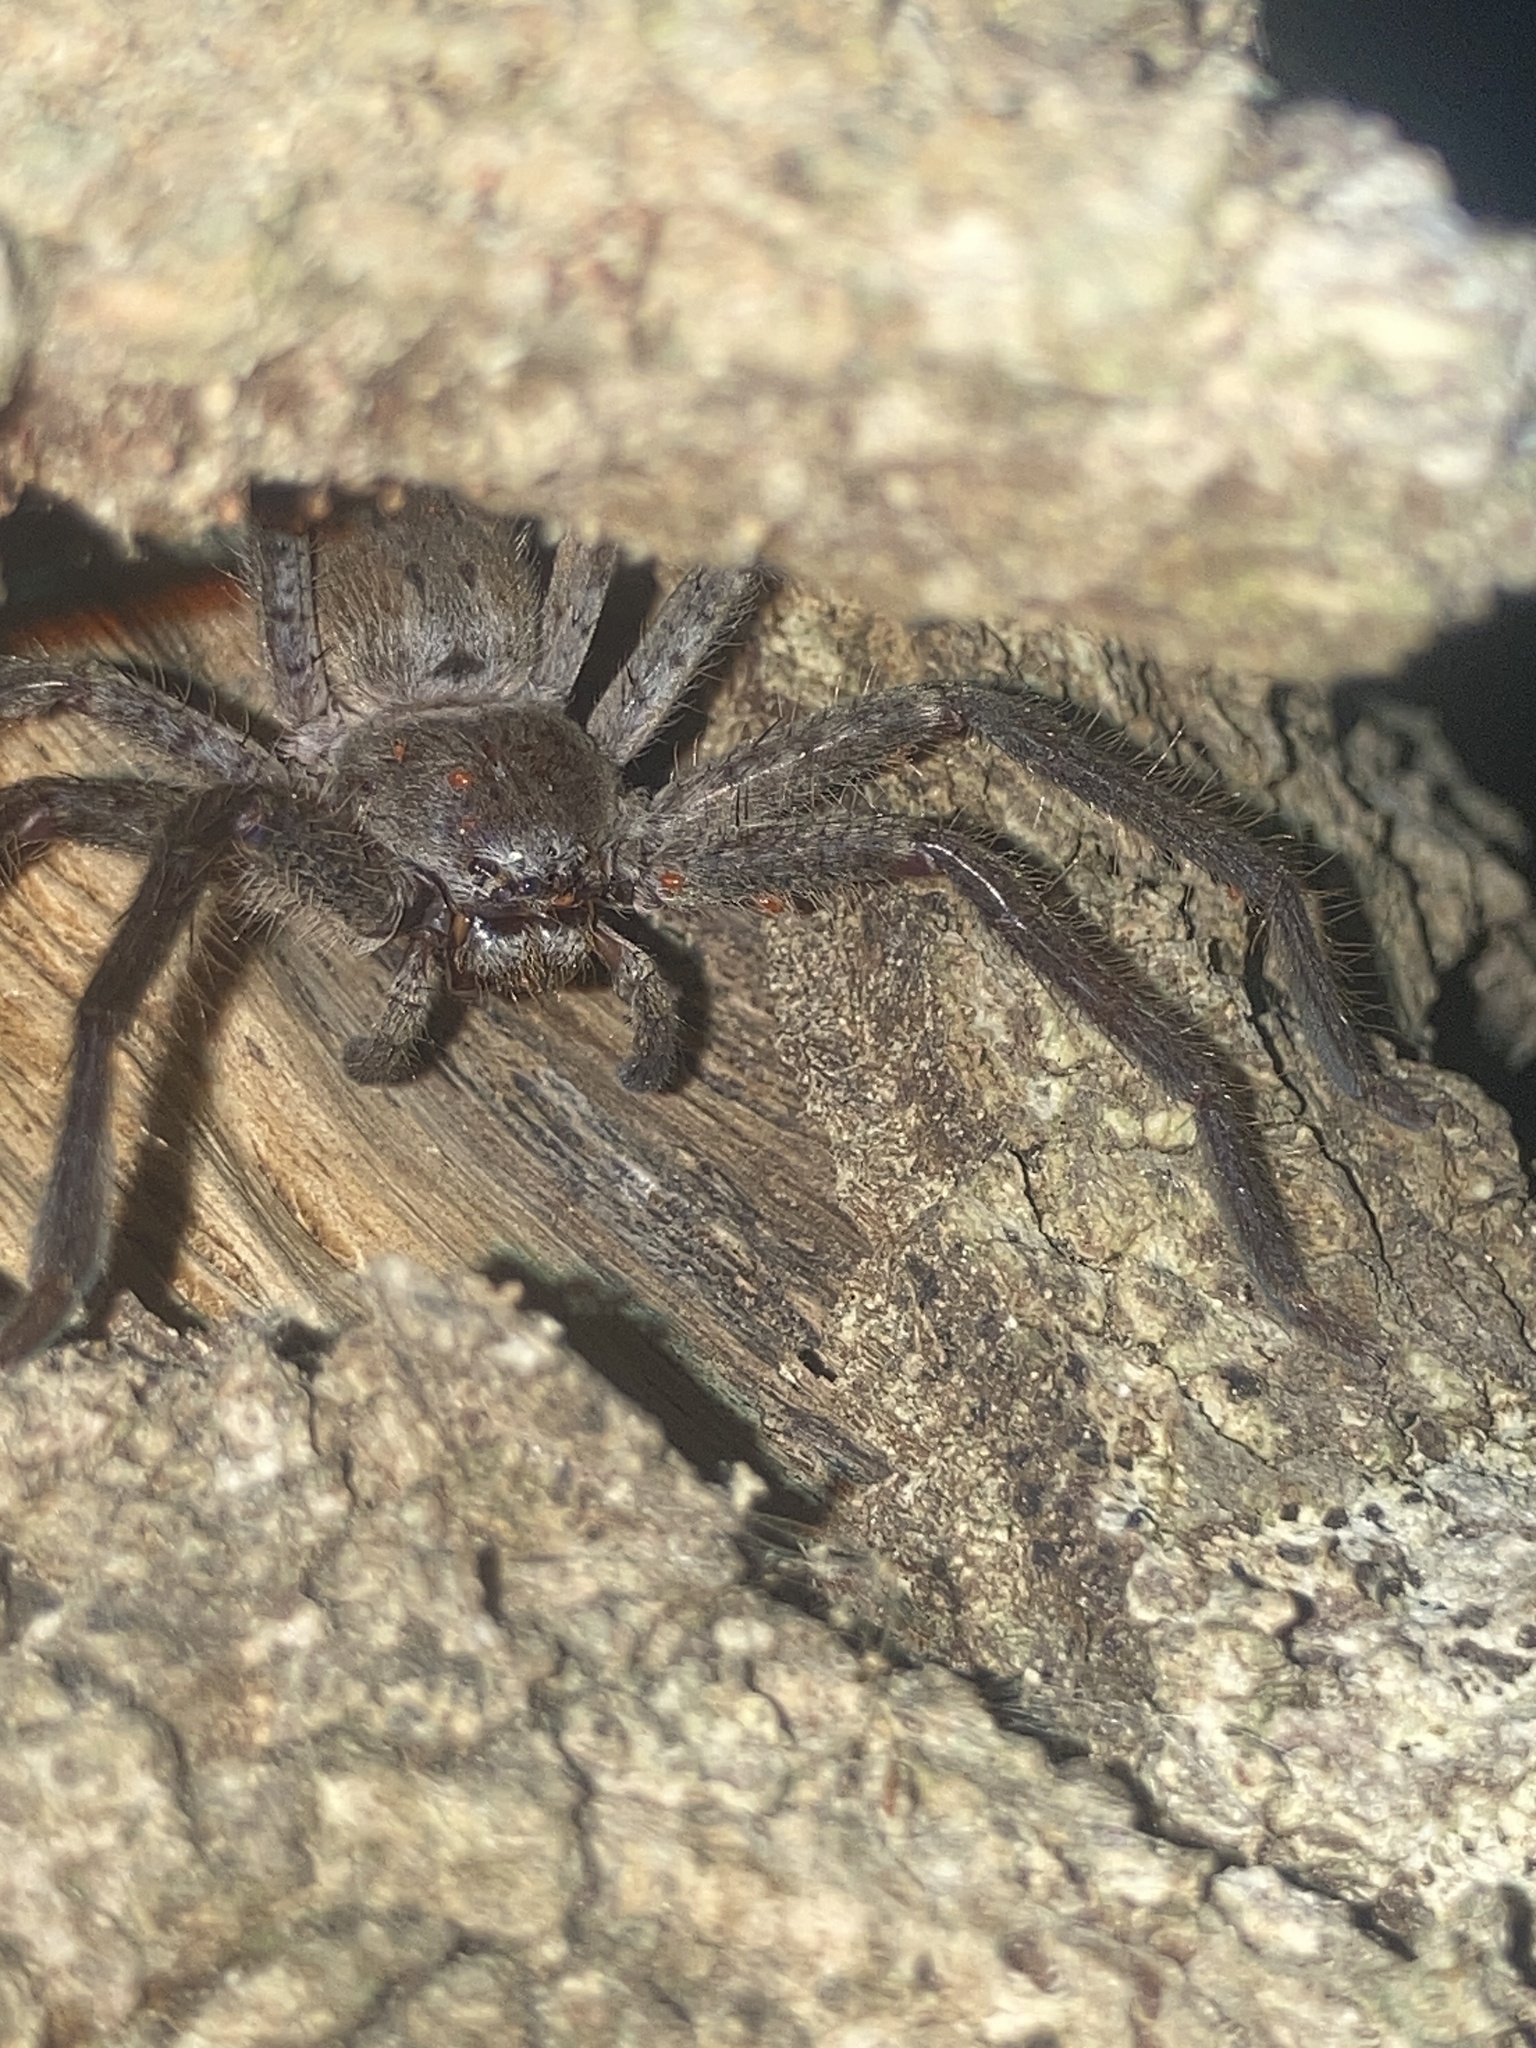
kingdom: Animalia
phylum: Arthropoda
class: Arachnida
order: Araneae
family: Sparassidae
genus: Isopeda
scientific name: Isopeda villosa
